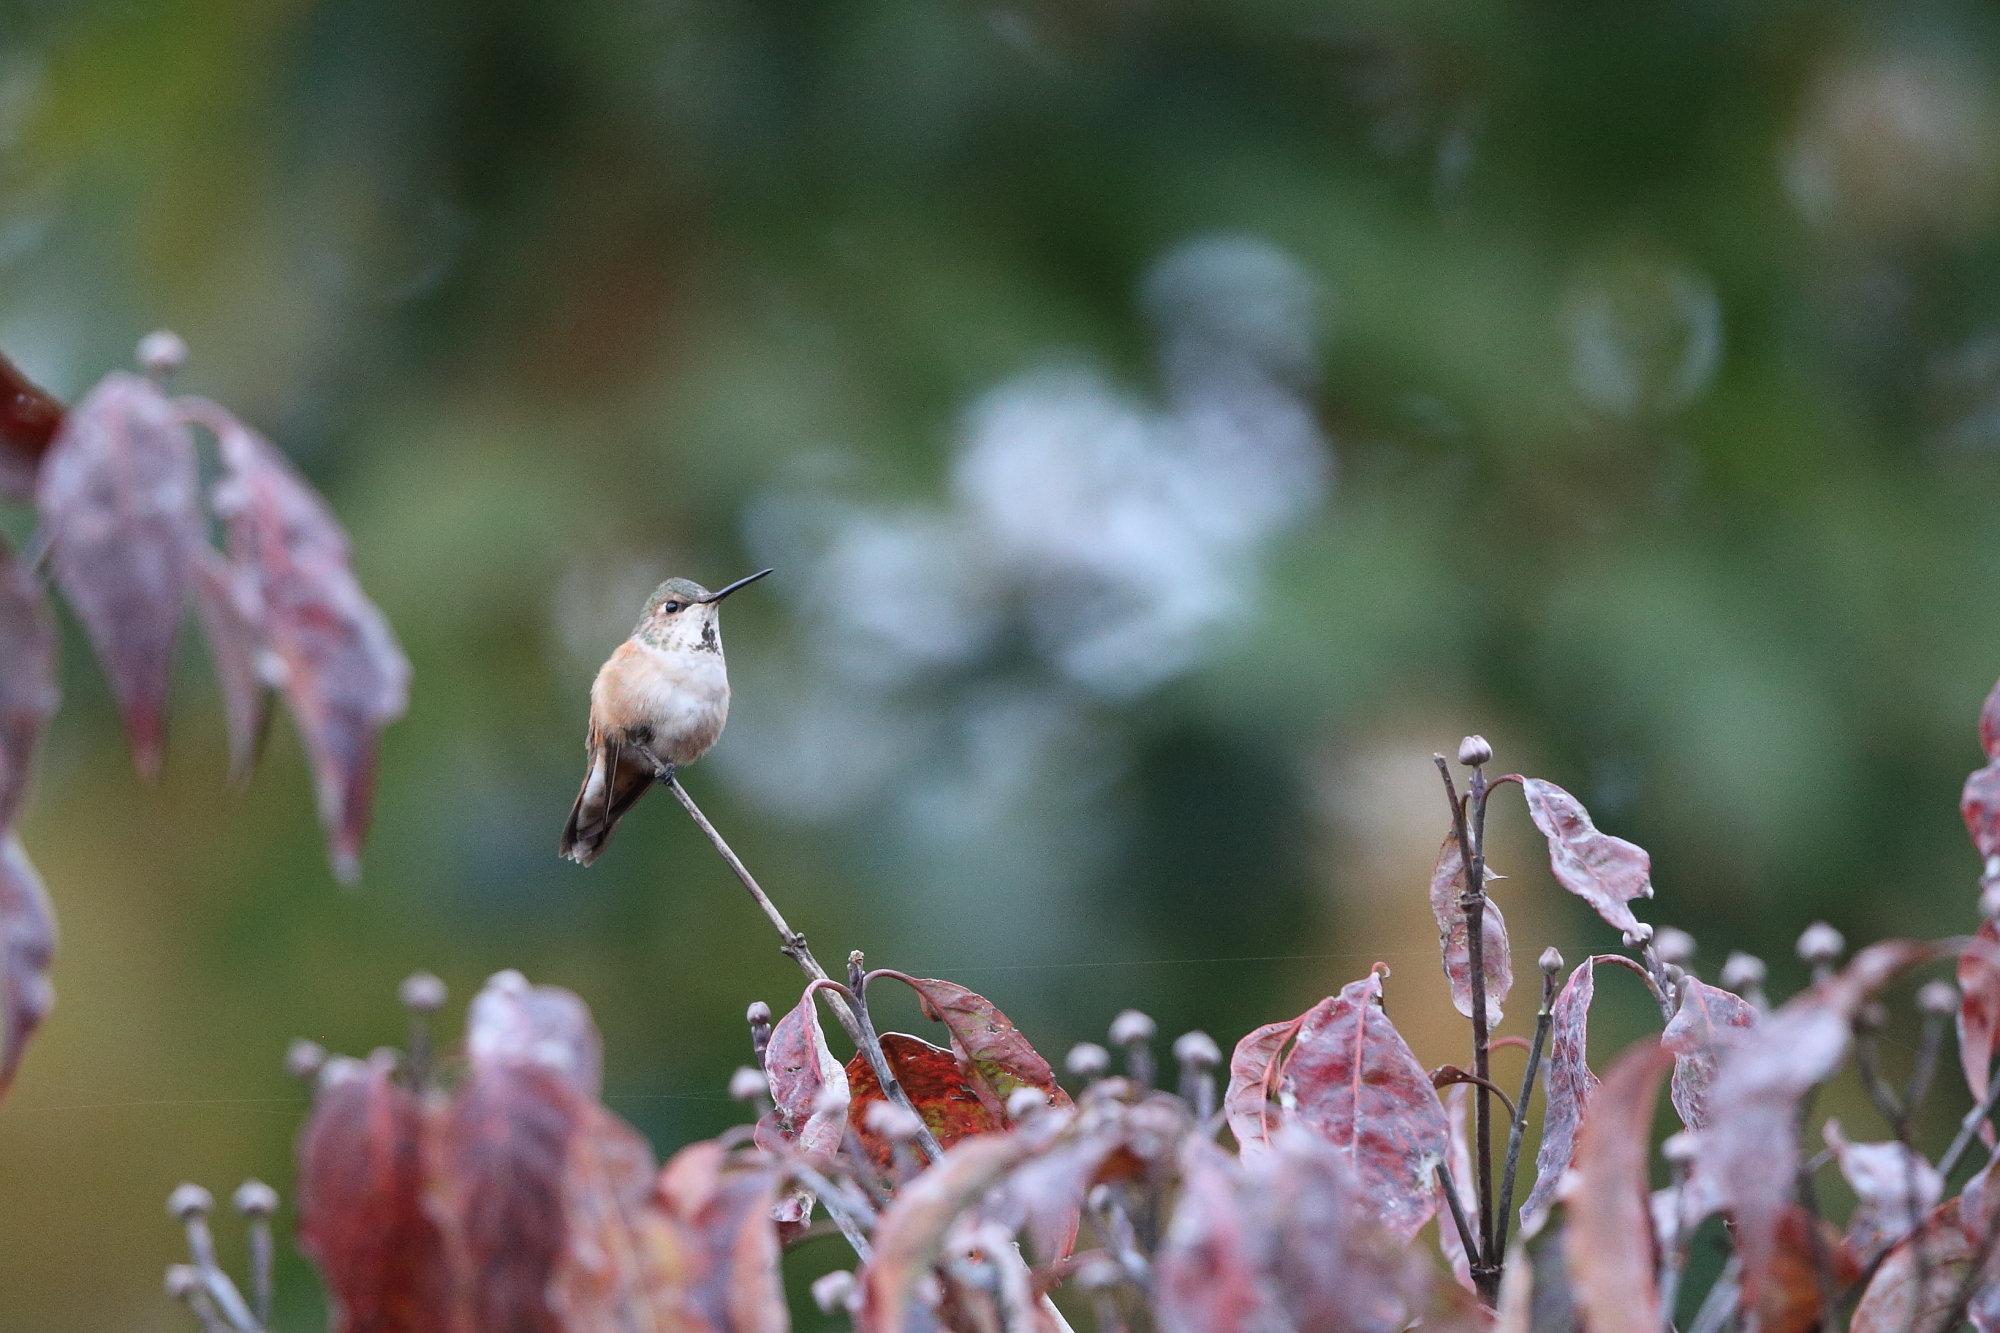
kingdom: Animalia
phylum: Chordata
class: Aves
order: Apodiformes
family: Trochilidae
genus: Selasphorus
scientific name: Selasphorus rufus
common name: Rufous hummingbird
